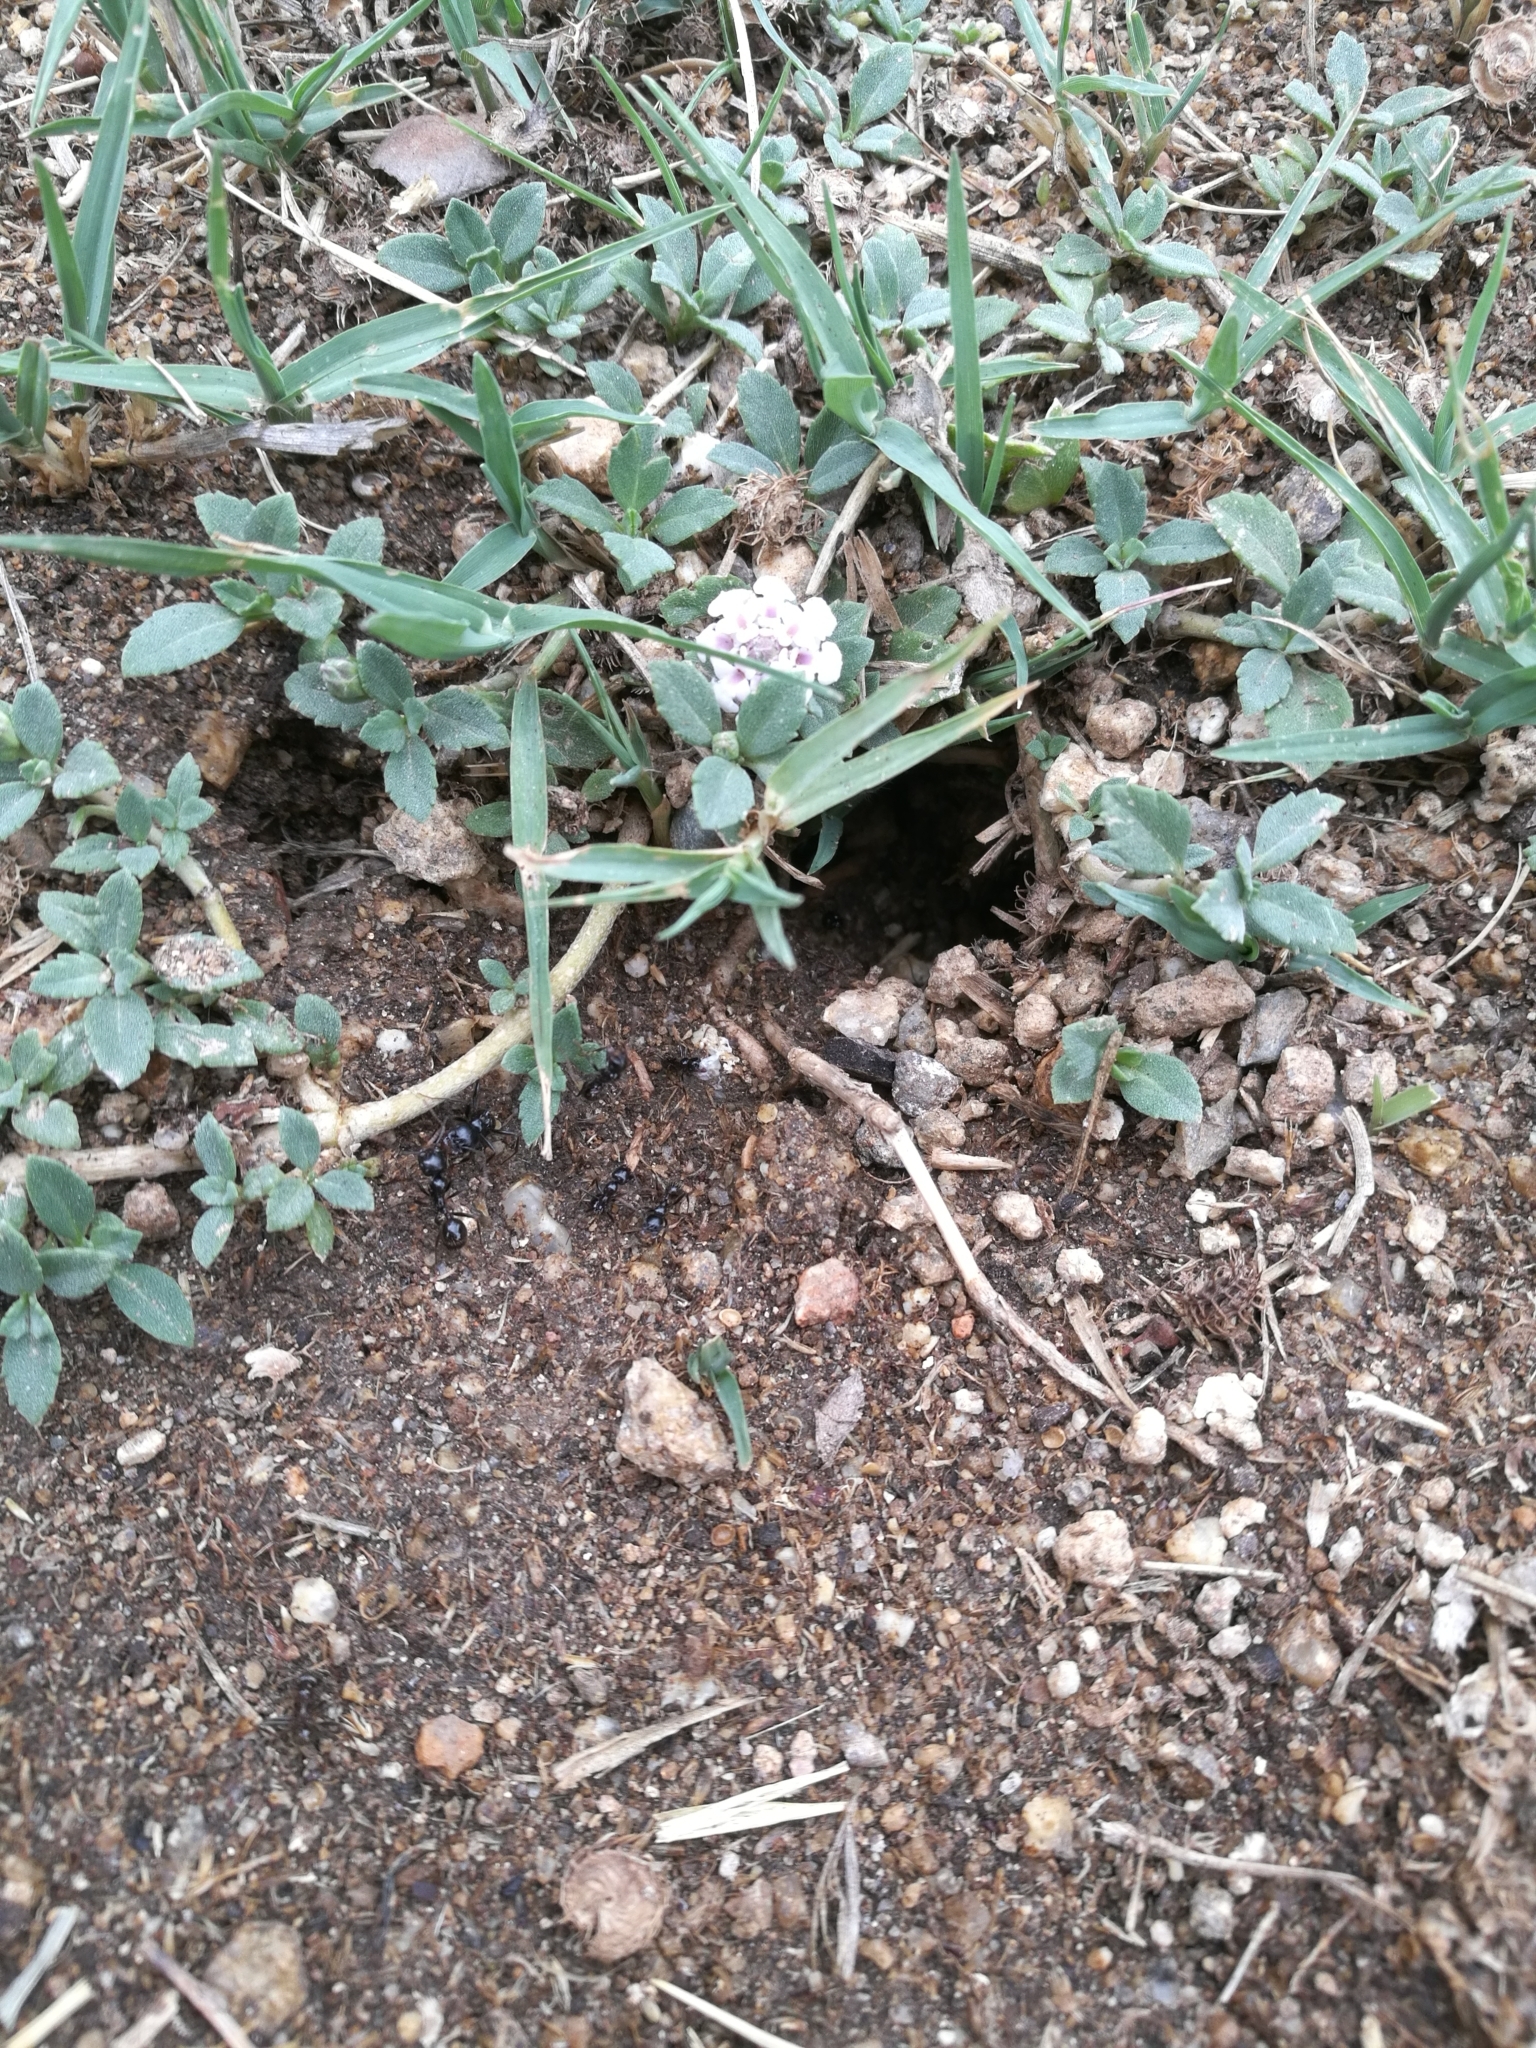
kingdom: Animalia
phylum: Arthropoda
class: Insecta
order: Hymenoptera
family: Formicidae
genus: Messor
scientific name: Messor barbarus
